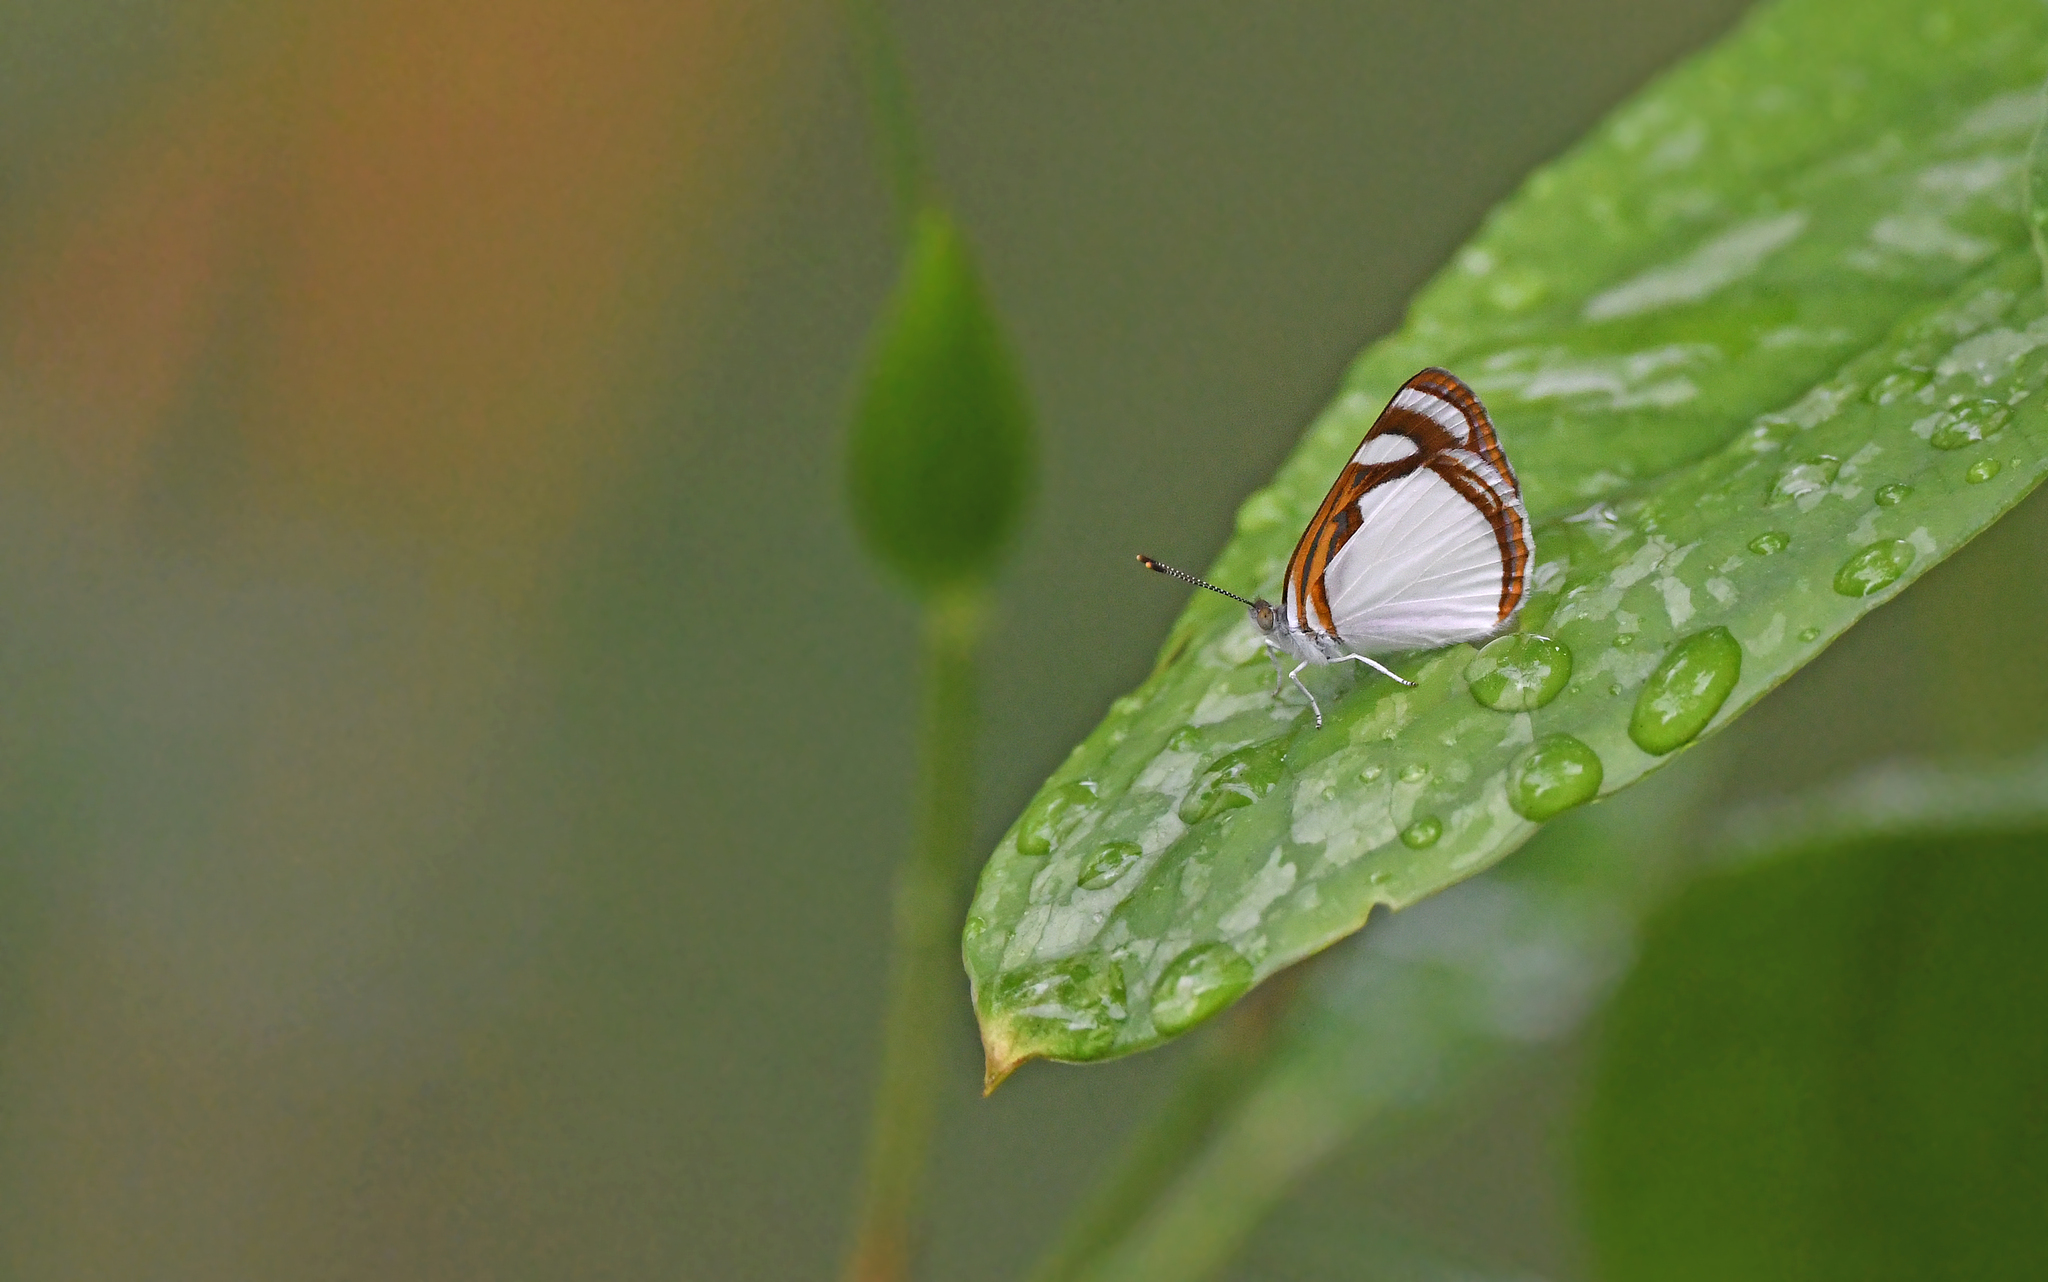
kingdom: Animalia
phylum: Arthropoda
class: Insecta
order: Lepidoptera
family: Nymphalidae
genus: Dynamine
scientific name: Dynamine agacles
